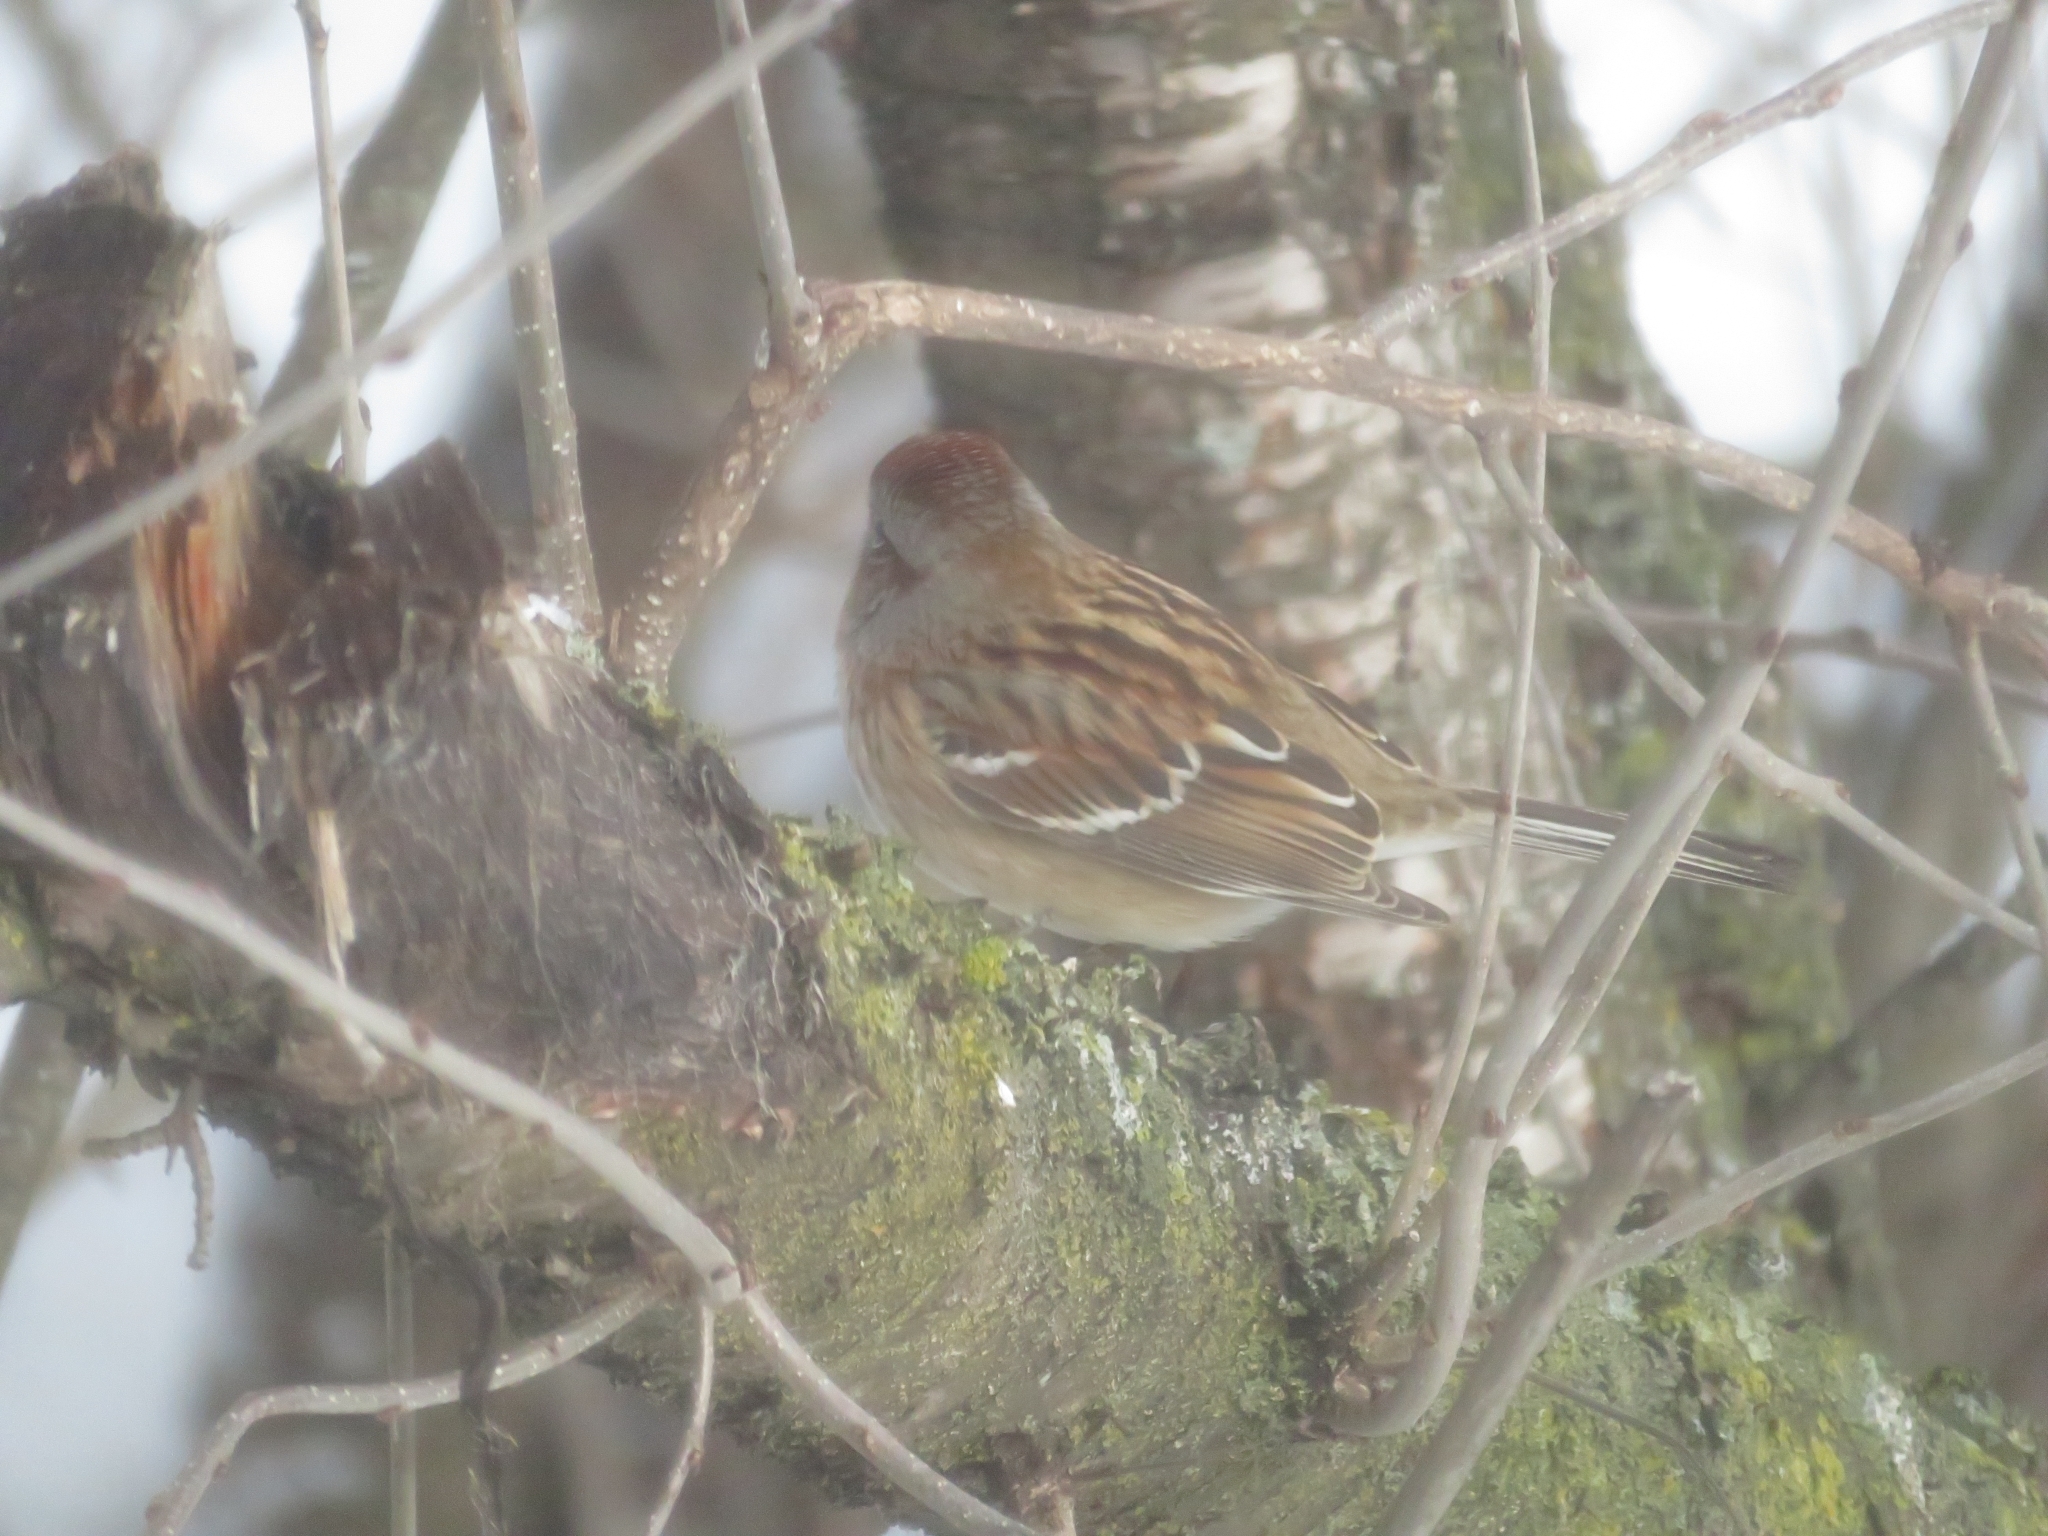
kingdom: Animalia
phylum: Chordata
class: Aves
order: Passeriformes
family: Passerellidae
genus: Spizelloides
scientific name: Spizelloides arborea
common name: American tree sparrow
